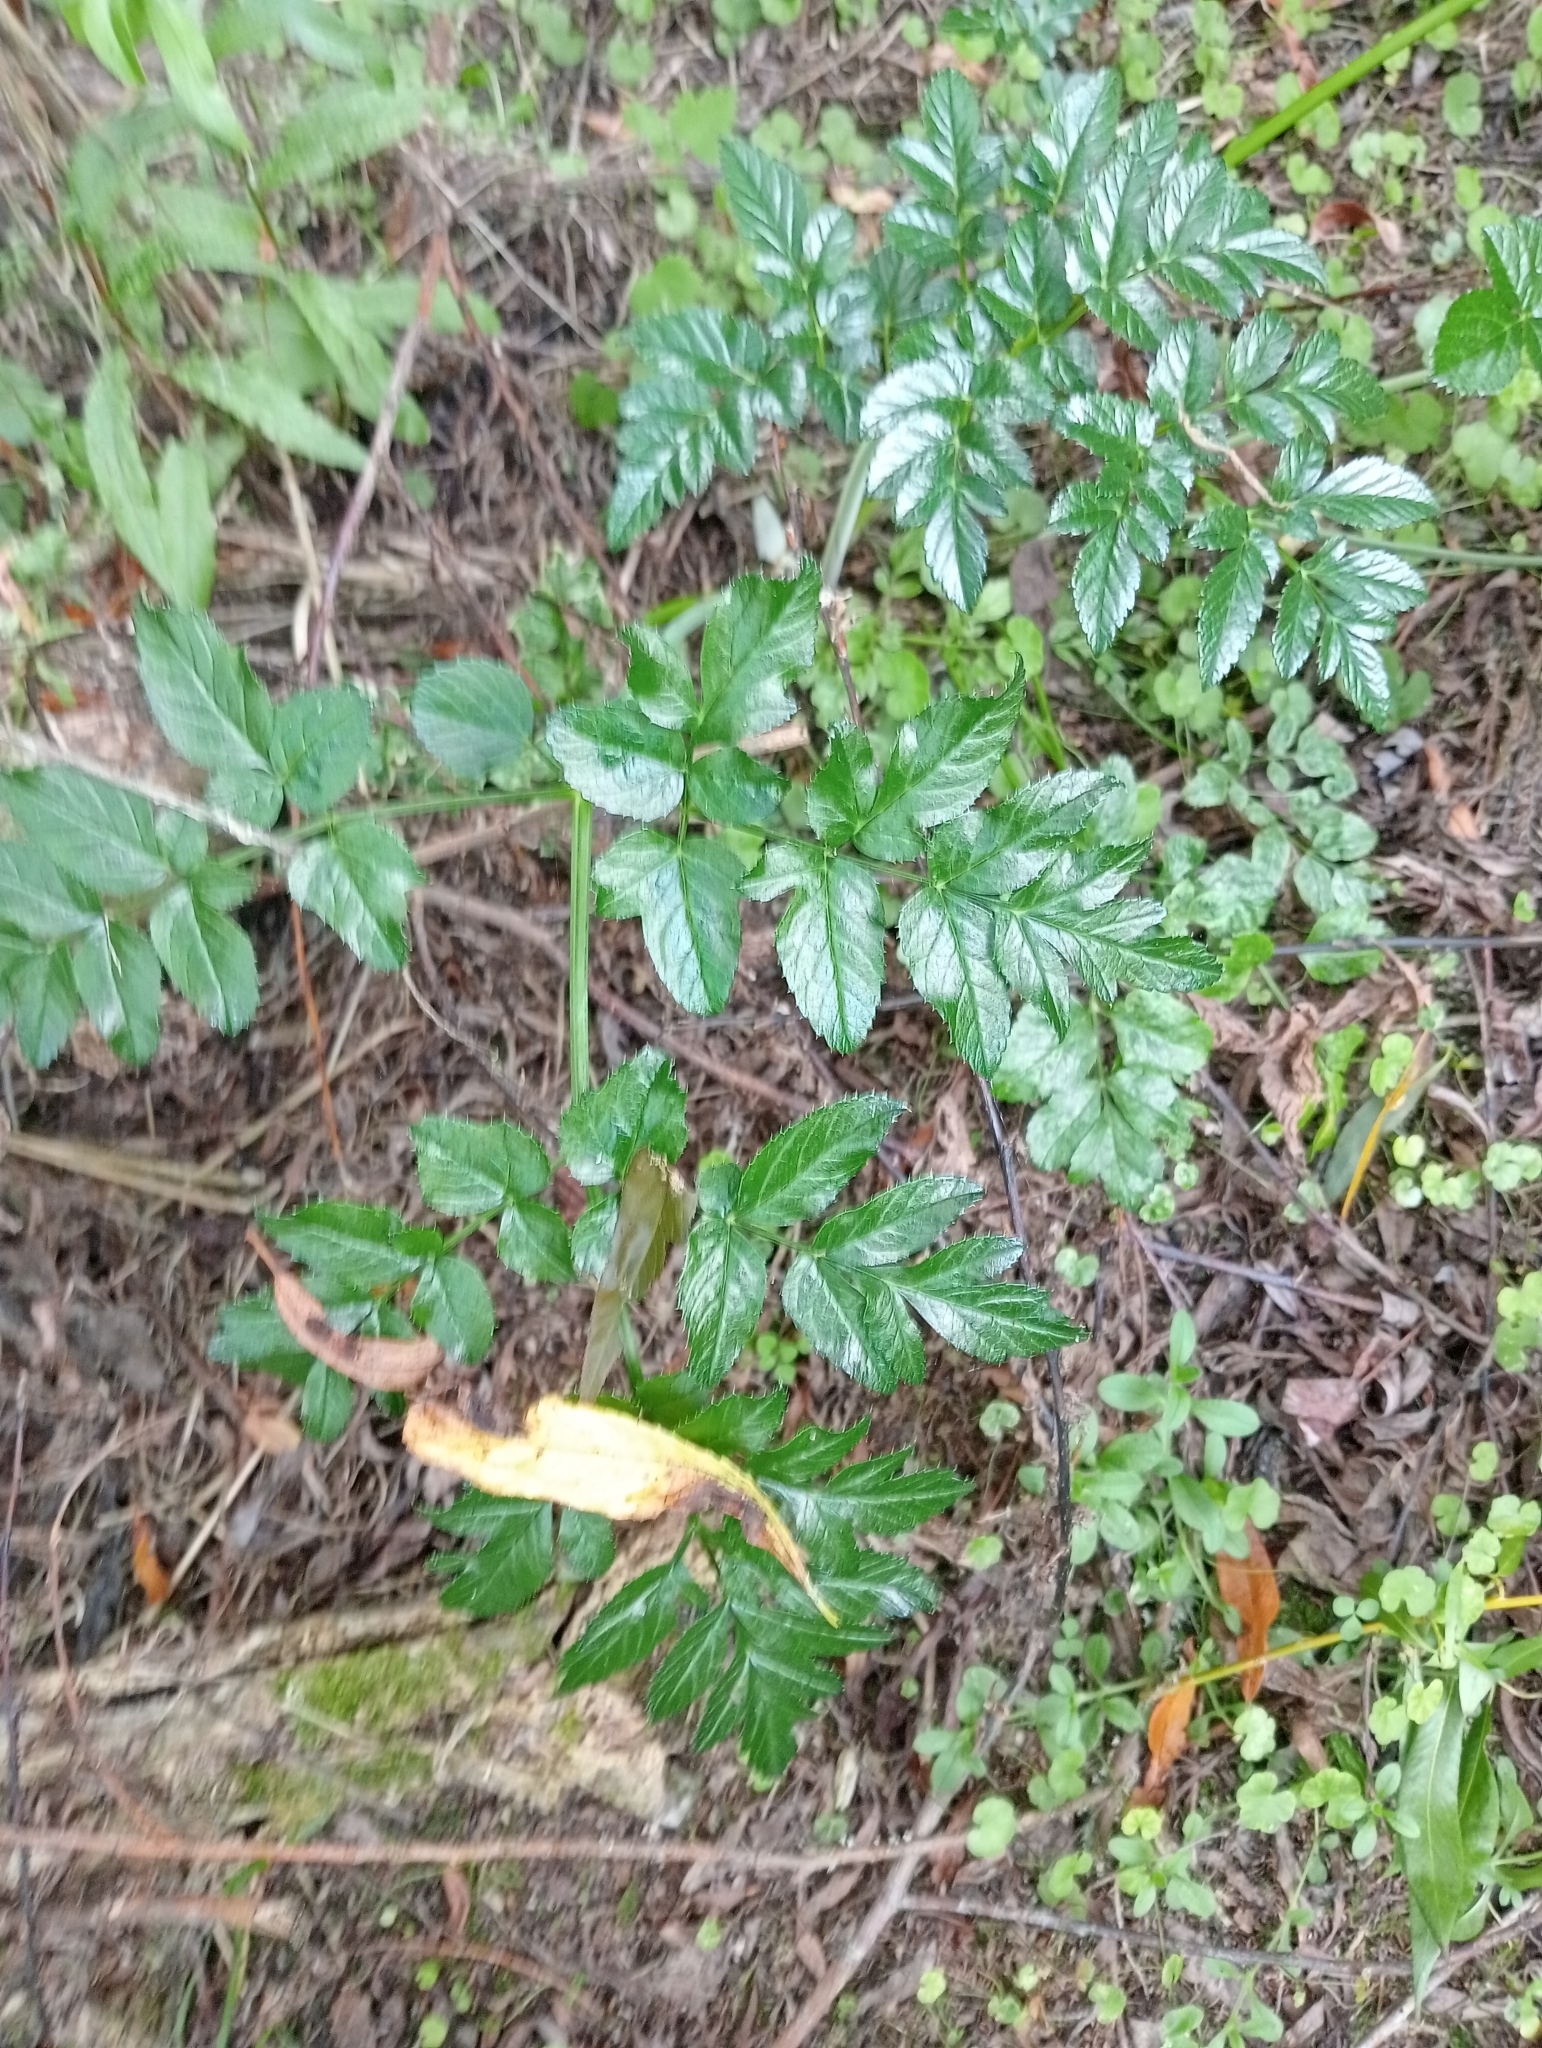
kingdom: Plantae
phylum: Tracheophyta
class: Magnoliopsida
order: Apiales
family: Apiaceae
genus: Angelica
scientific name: Angelica pachycarpa
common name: Portuguese angelica
